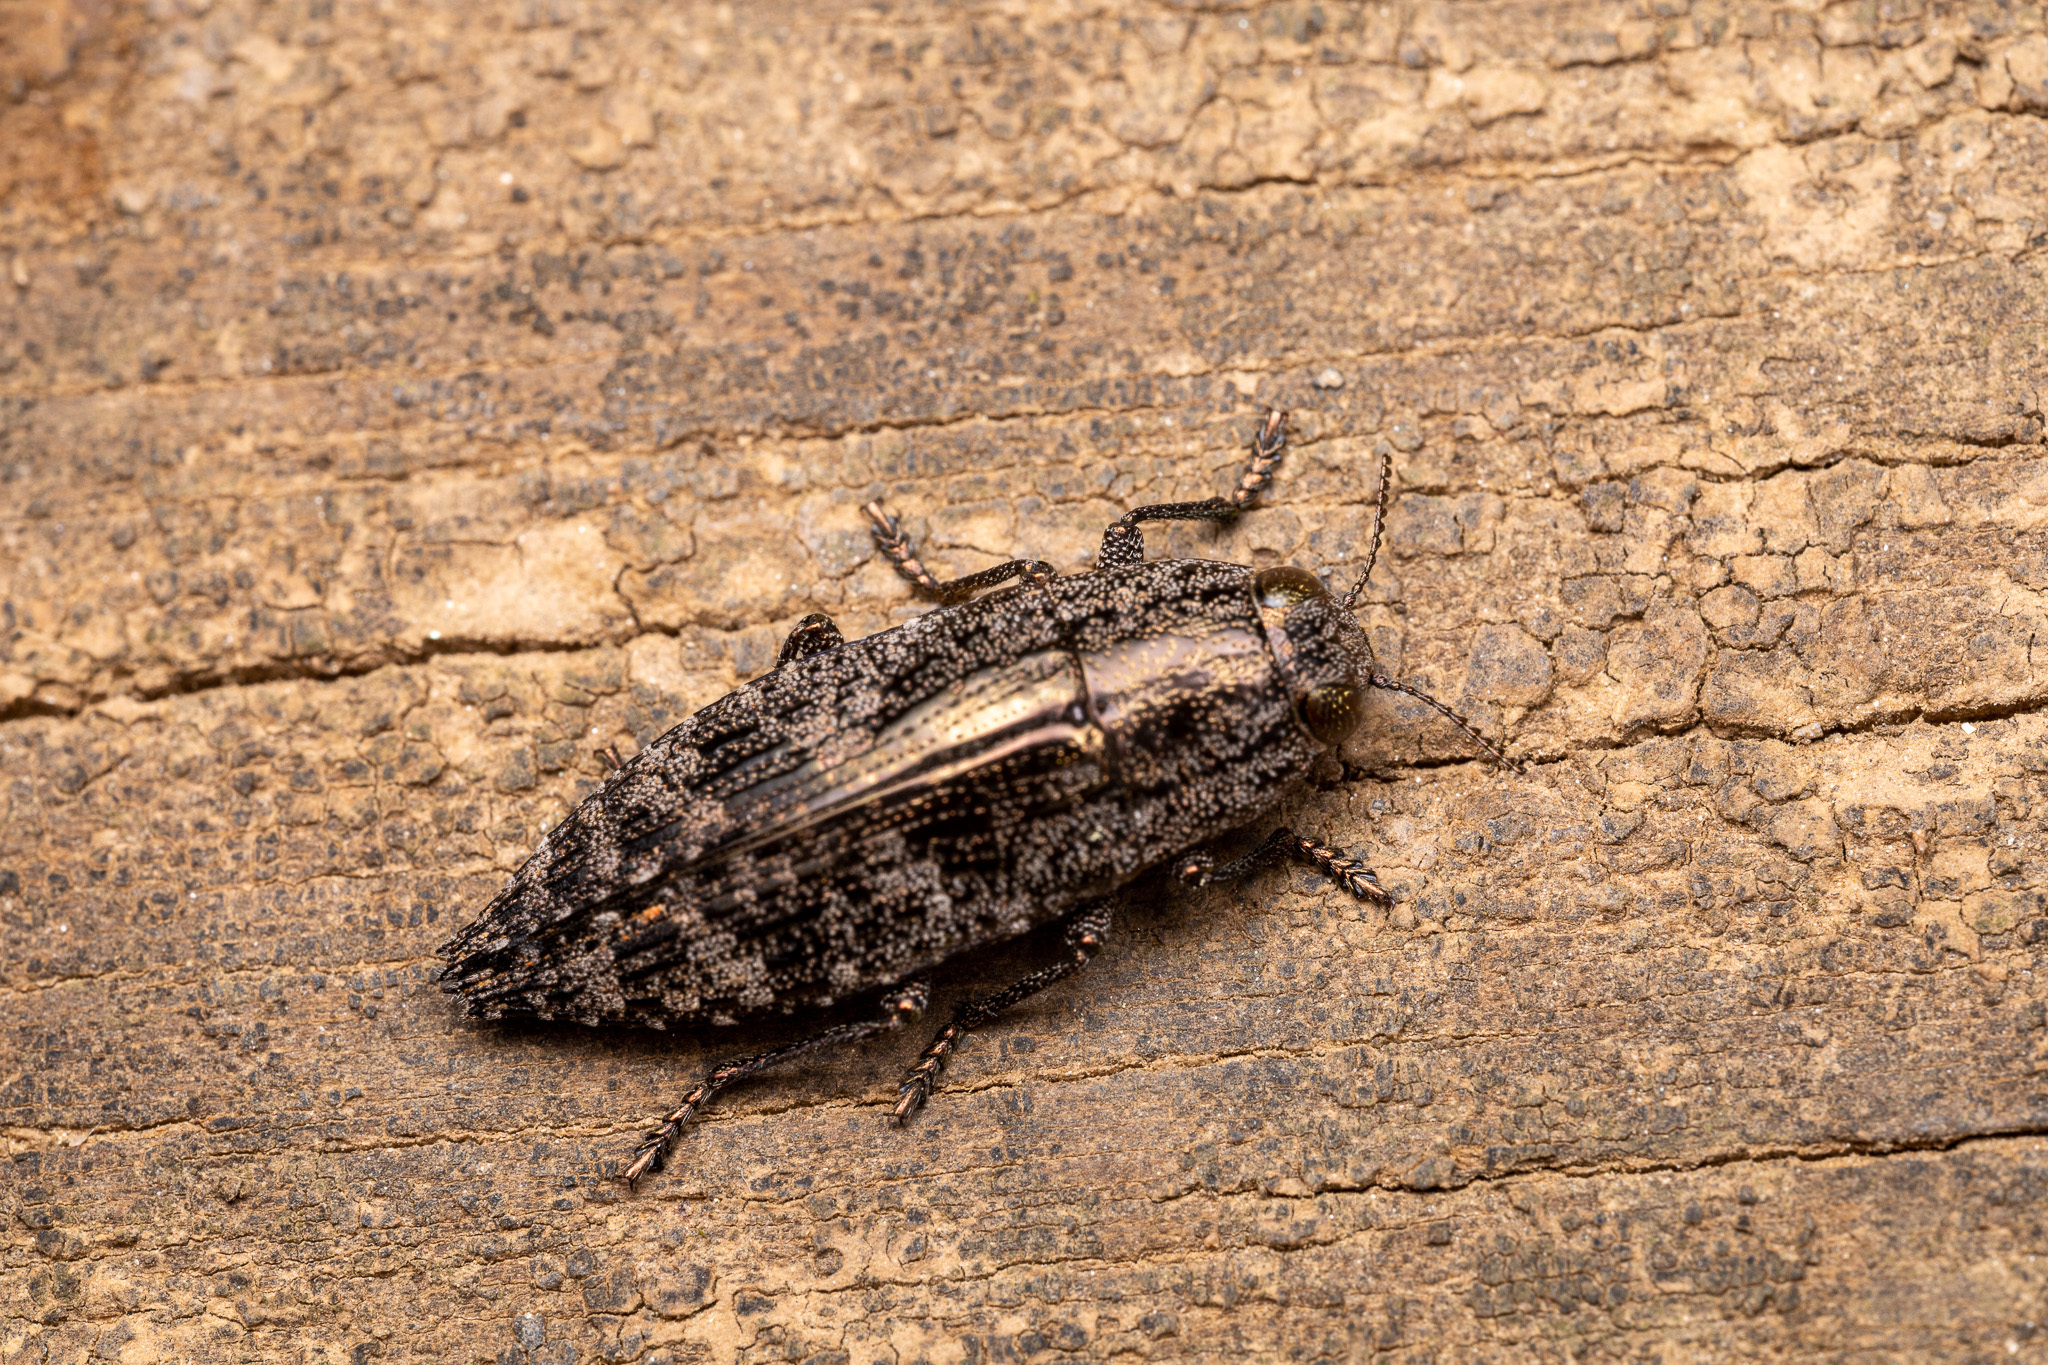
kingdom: Animalia
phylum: Arthropoda
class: Insecta
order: Coleoptera
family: Buprestidae
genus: Dicerca
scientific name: Dicerca obscura
